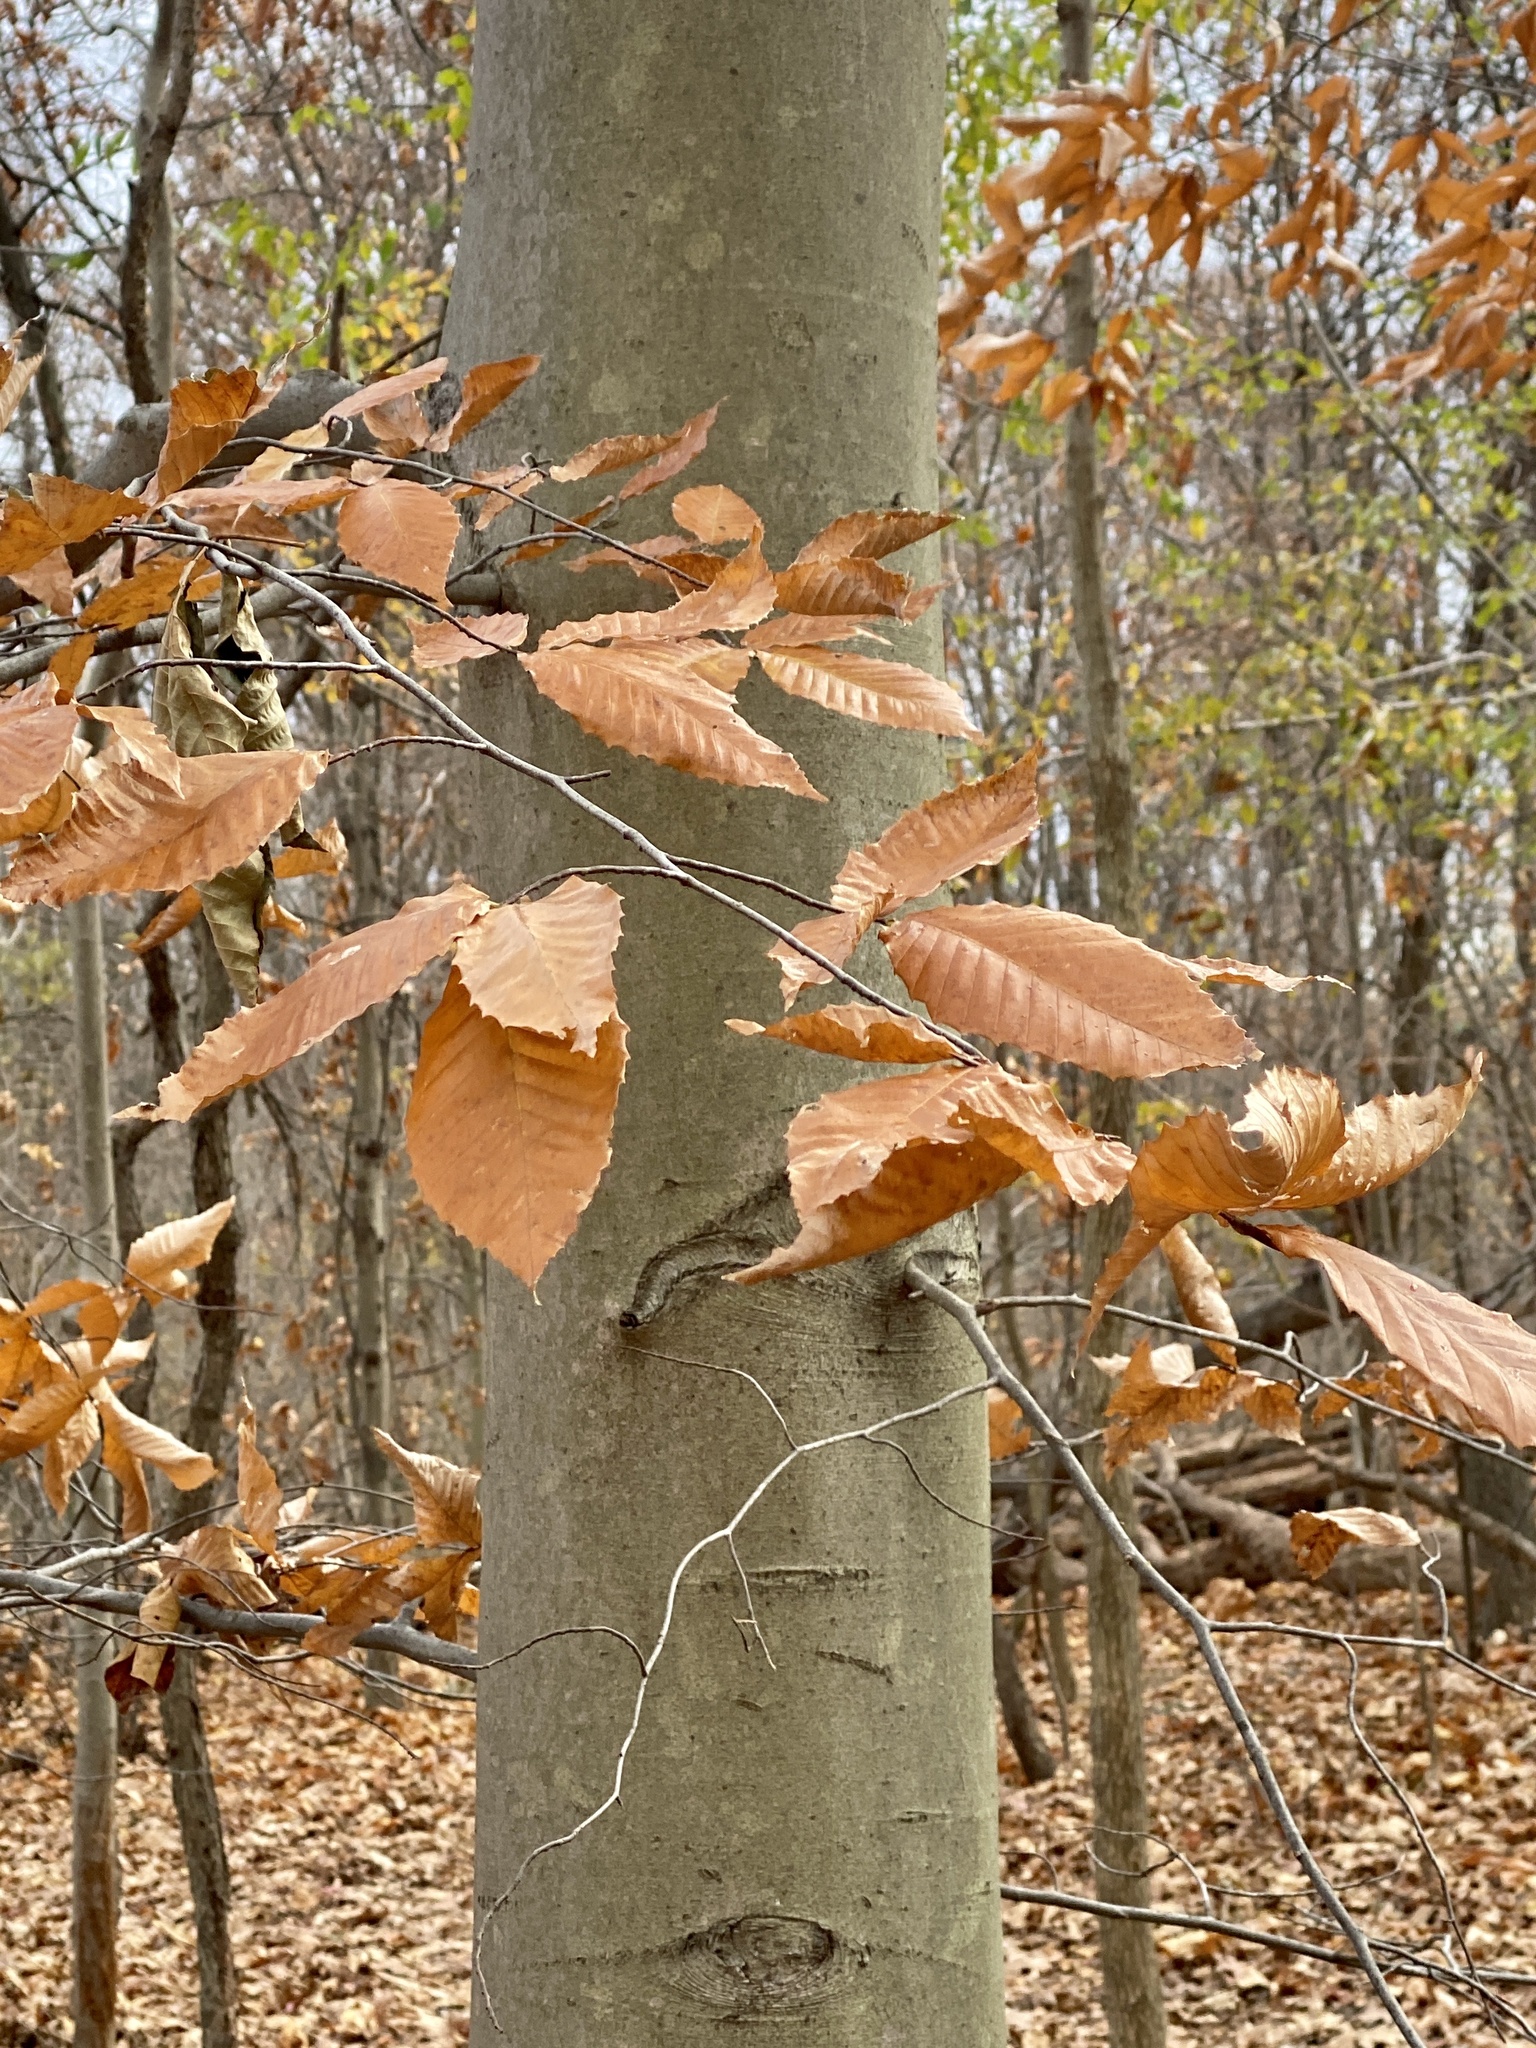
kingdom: Plantae
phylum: Tracheophyta
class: Magnoliopsida
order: Fagales
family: Fagaceae
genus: Fagus
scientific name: Fagus grandifolia
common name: American beech
